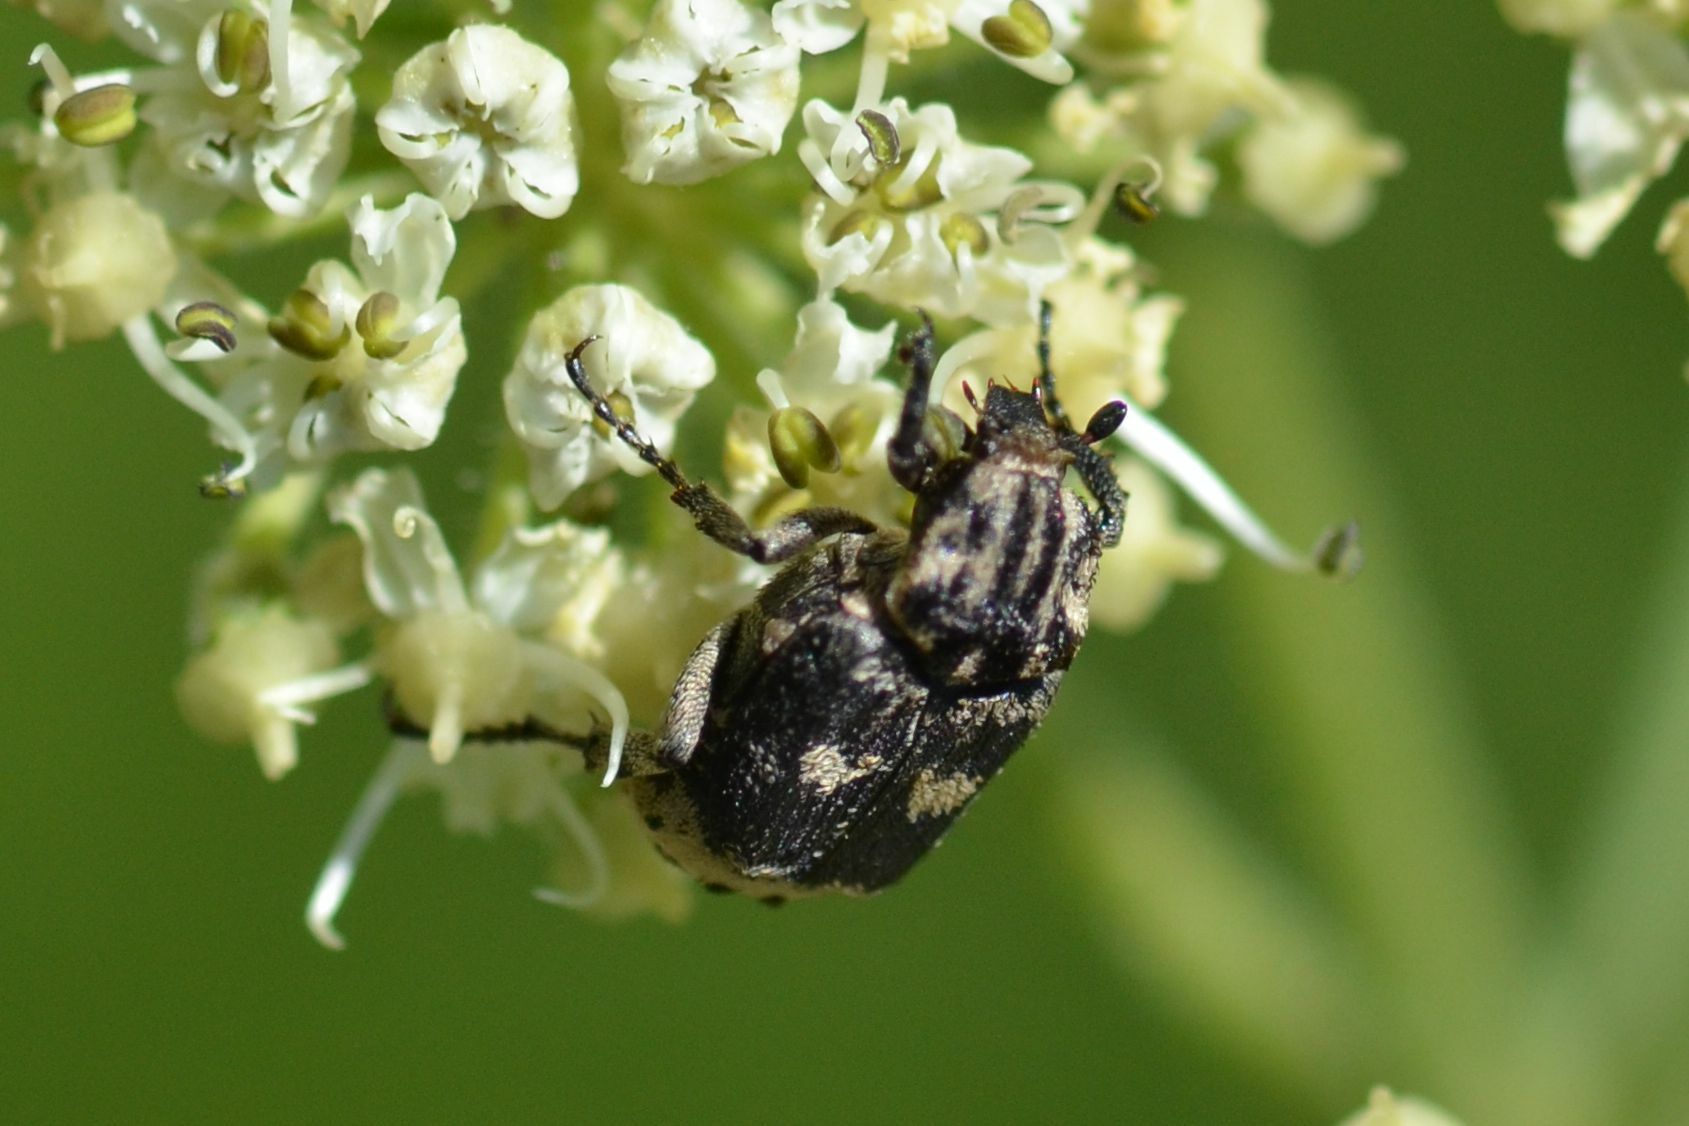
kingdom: Animalia
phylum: Arthropoda
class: Insecta
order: Coleoptera
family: Scarabaeidae
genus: Valgus
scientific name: Valgus hemipterus
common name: Bug flower chafer
